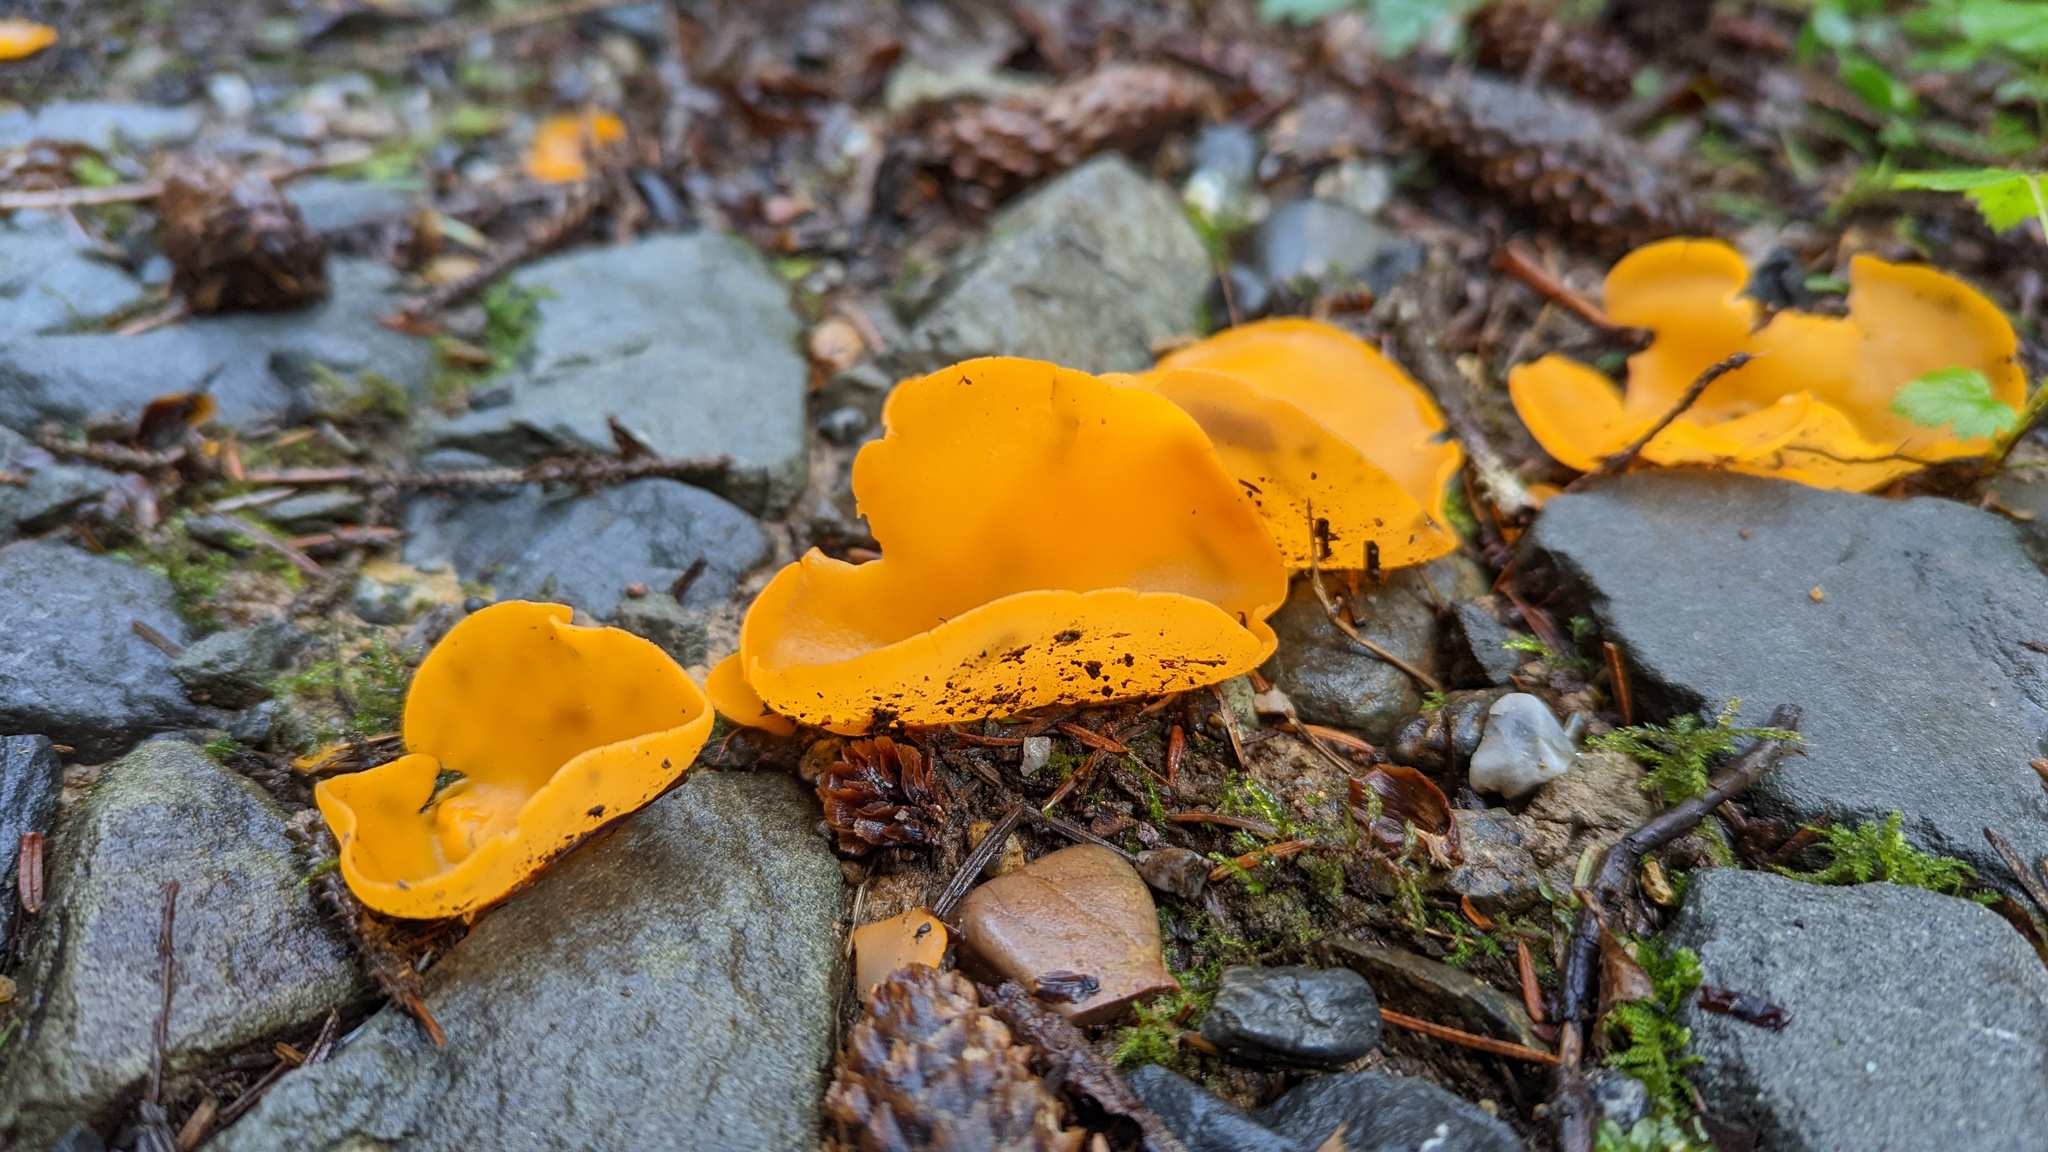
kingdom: Fungi
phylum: Ascomycota
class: Pezizomycetes
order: Pezizales
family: Pyronemataceae
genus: Aleuria
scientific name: Aleuria aurantia
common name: Orange peel fungus
